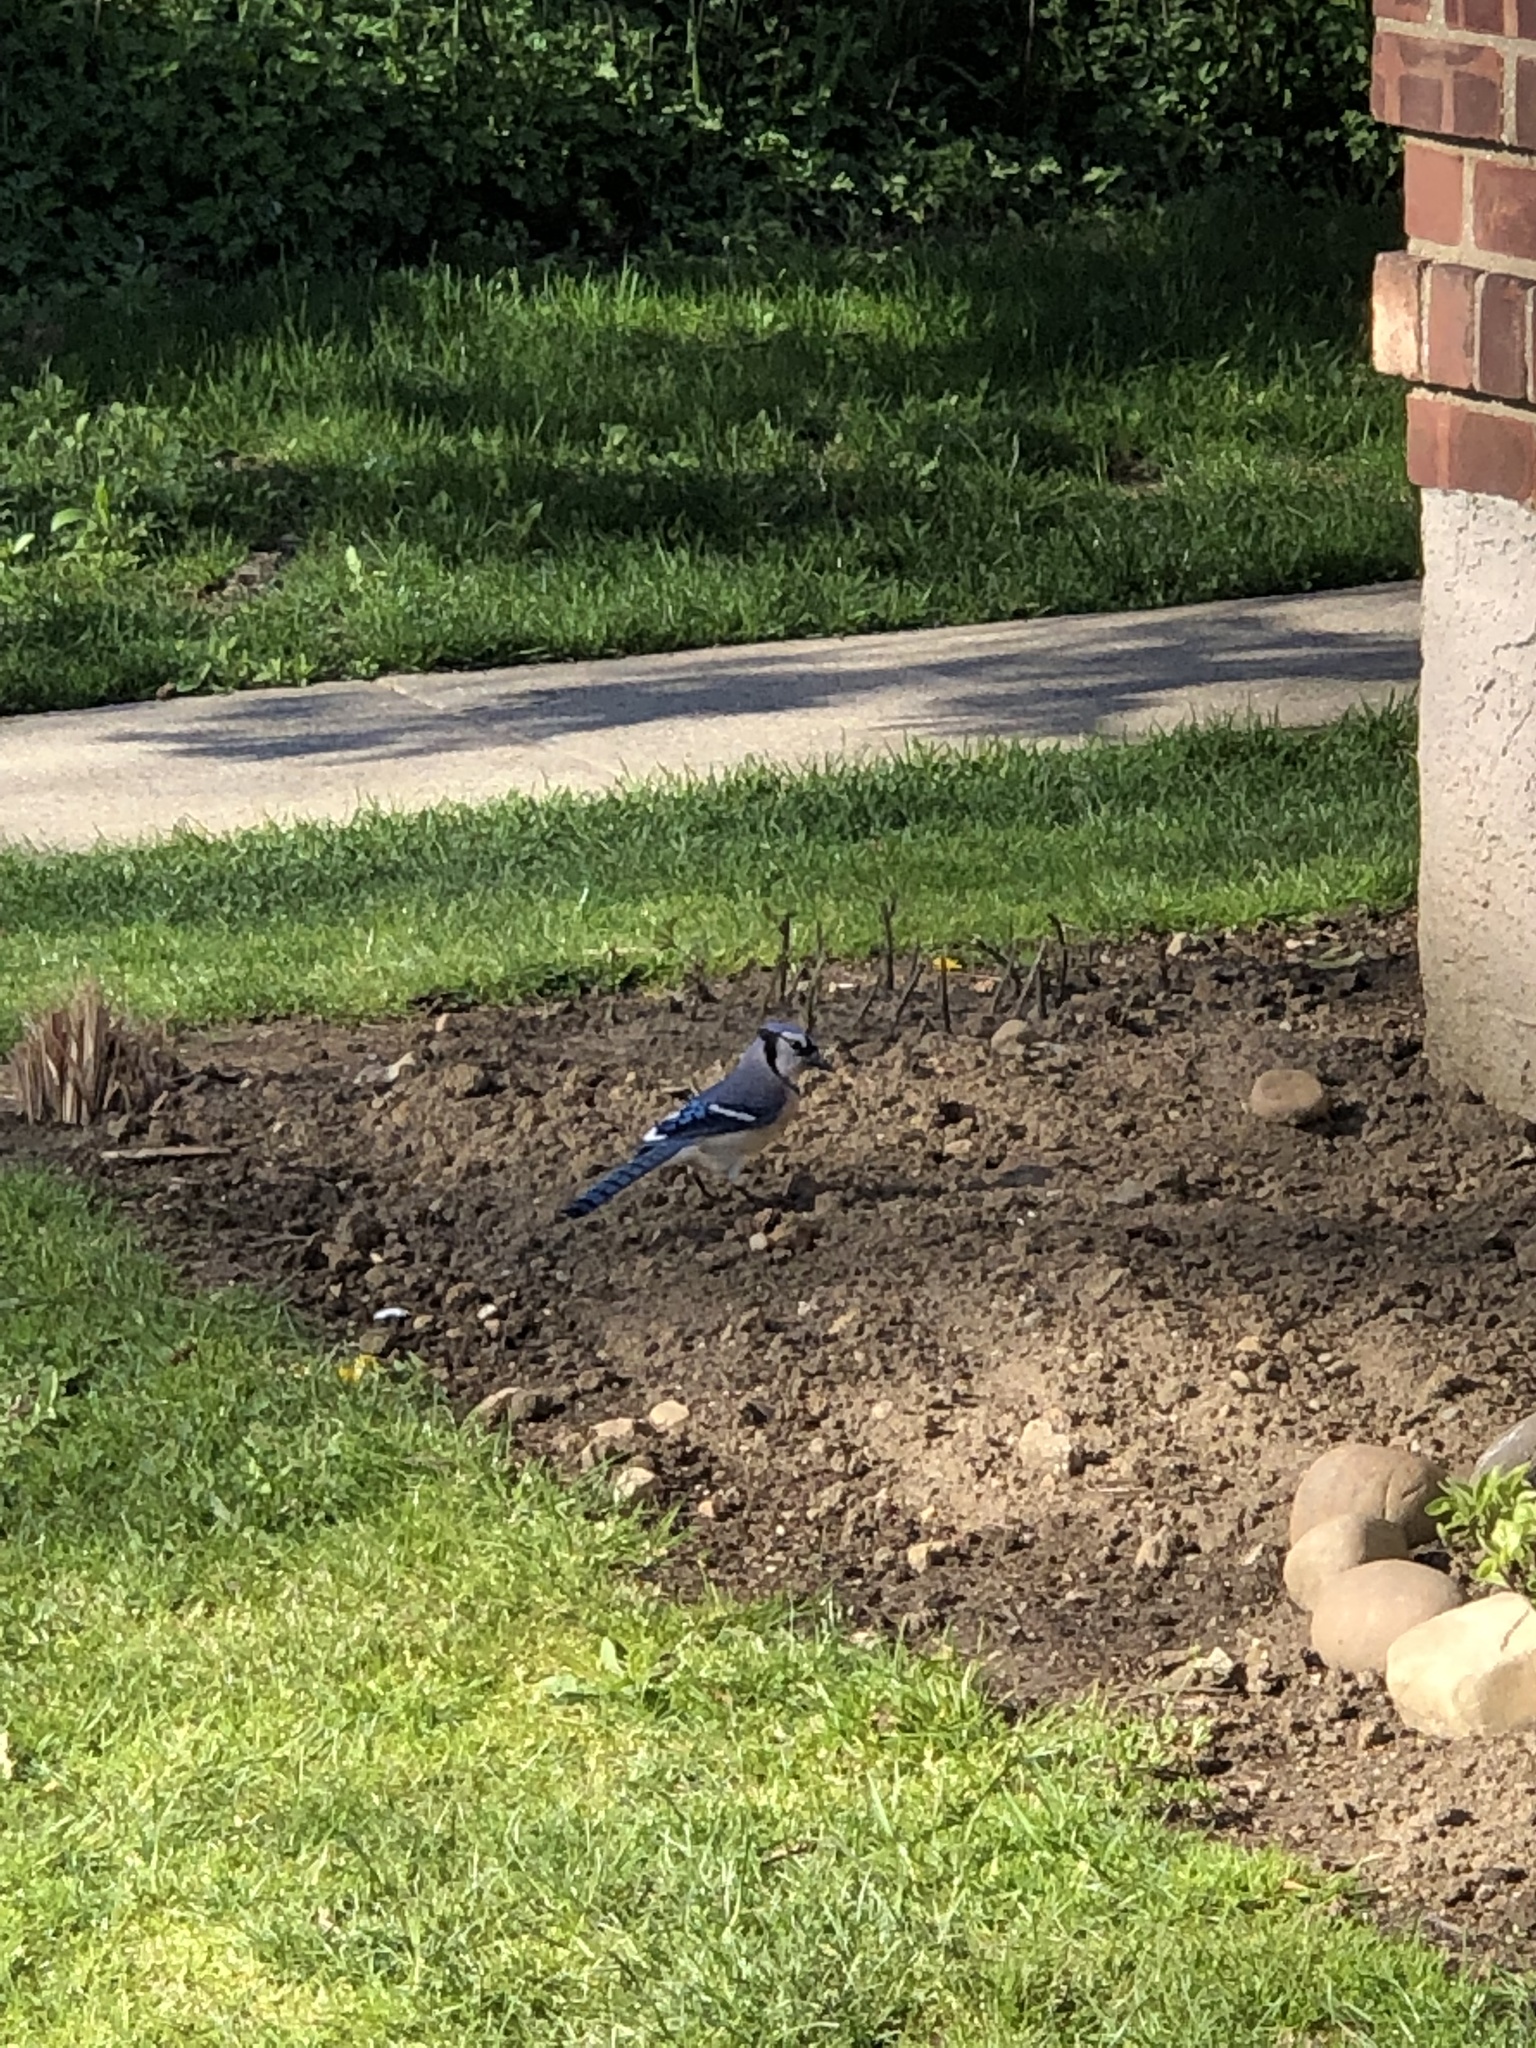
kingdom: Animalia
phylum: Chordata
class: Aves
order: Passeriformes
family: Corvidae
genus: Cyanocitta
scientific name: Cyanocitta cristata
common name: Blue jay
